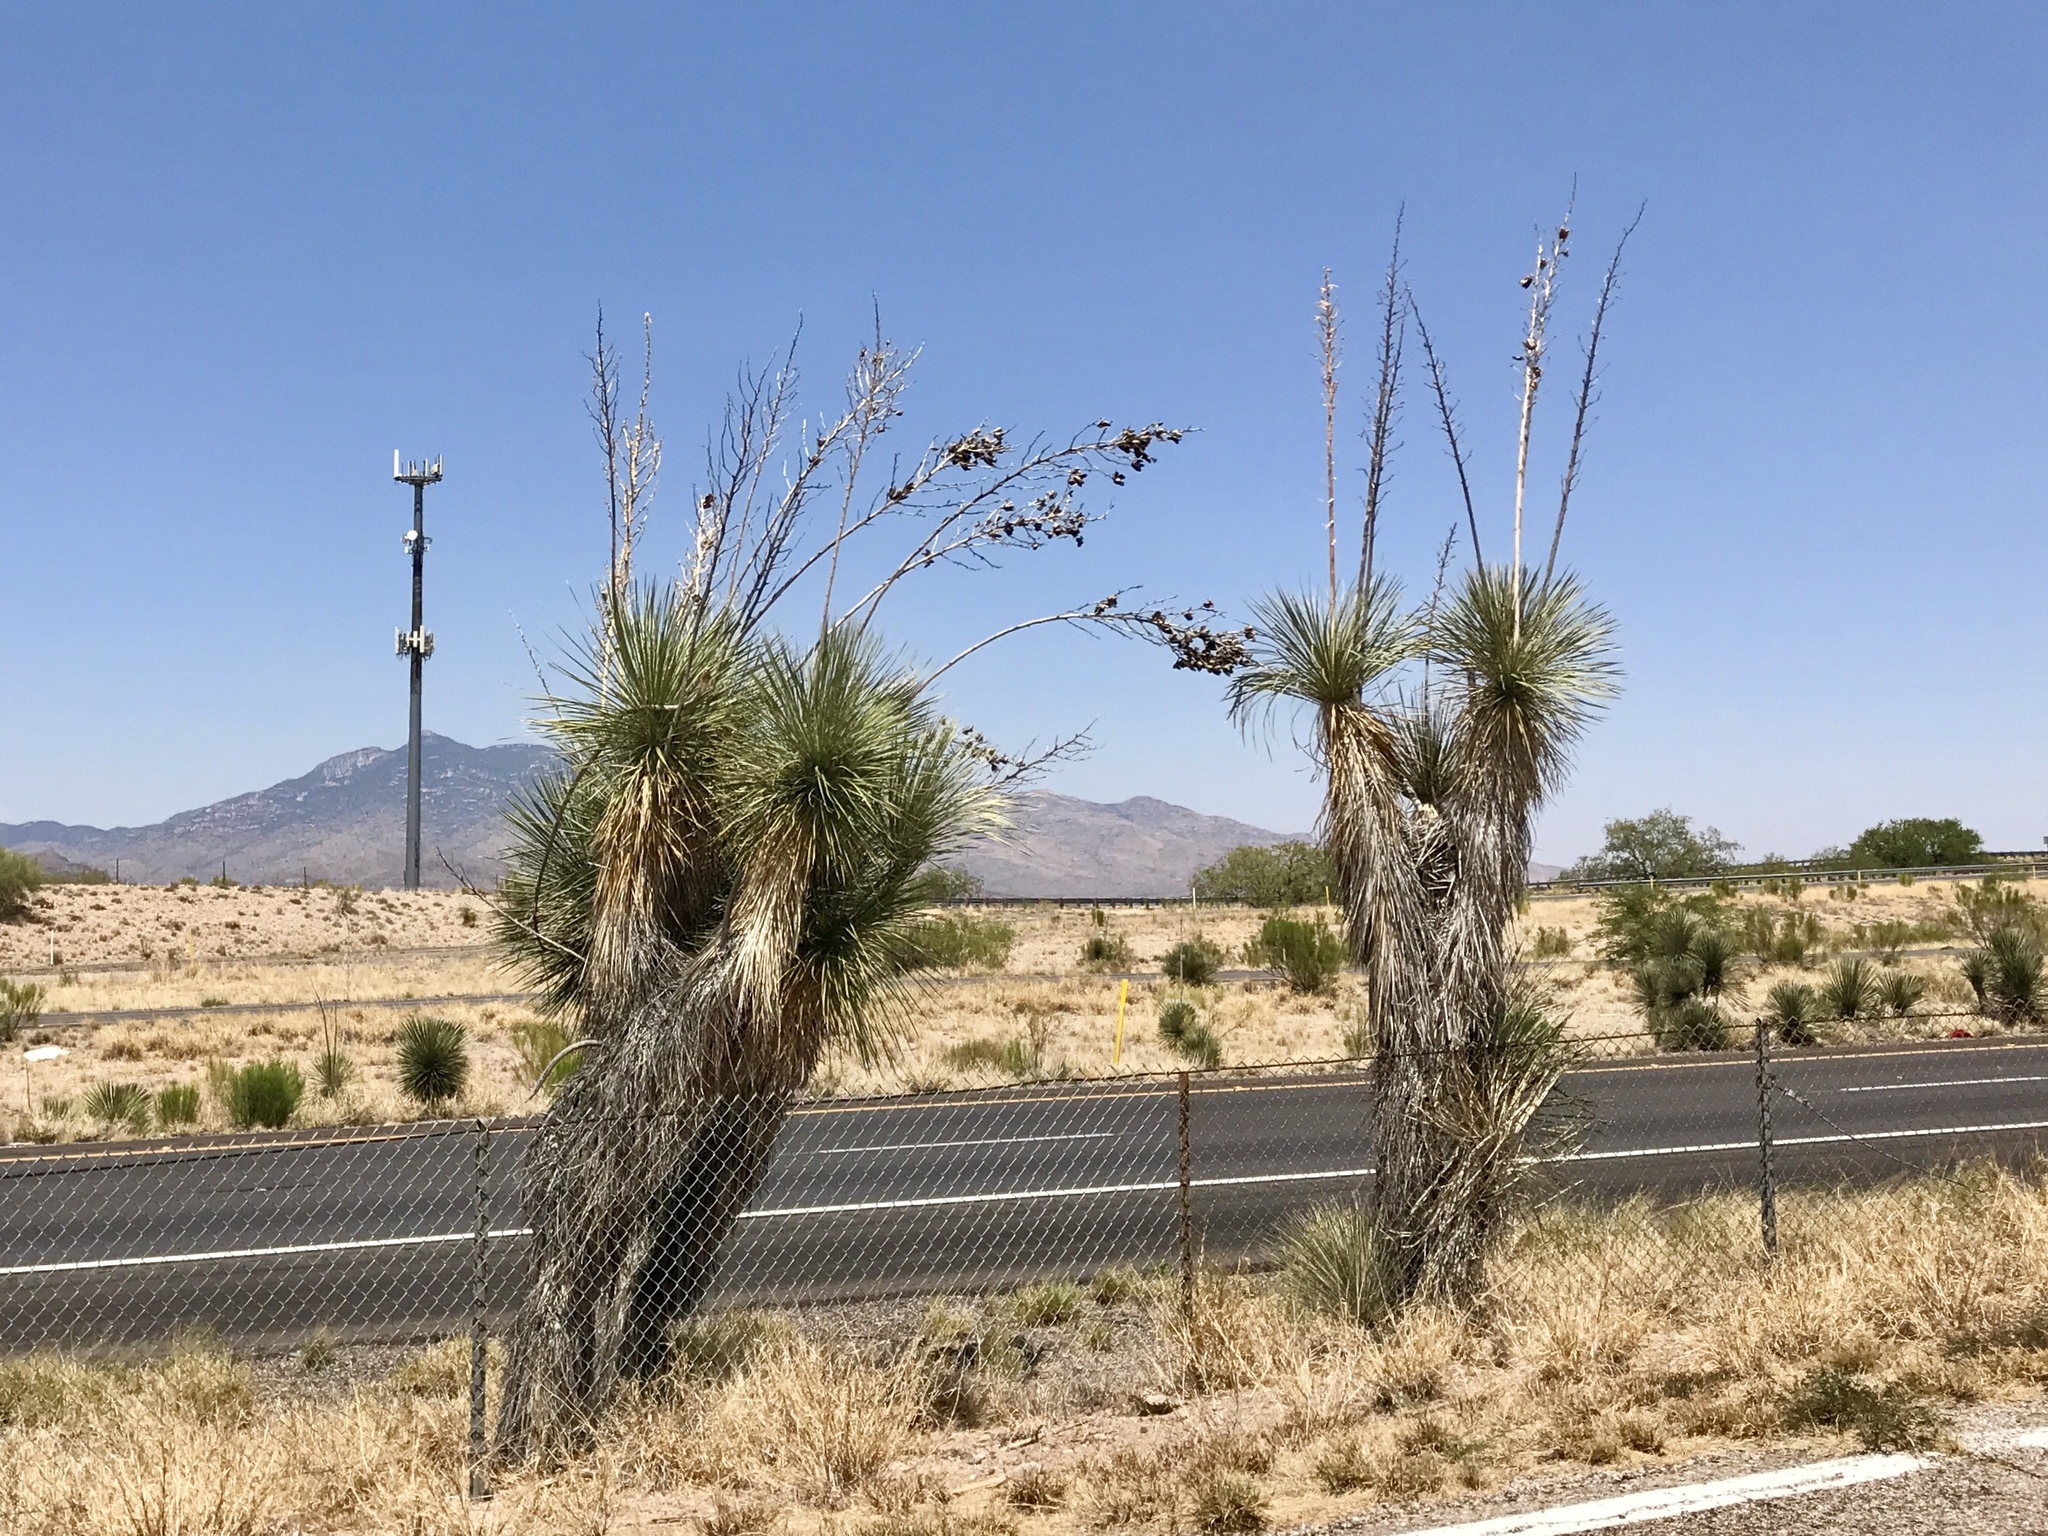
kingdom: Plantae
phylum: Tracheophyta
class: Liliopsida
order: Asparagales
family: Asparagaceae
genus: Yucca
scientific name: Yucca elata
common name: Palmella
